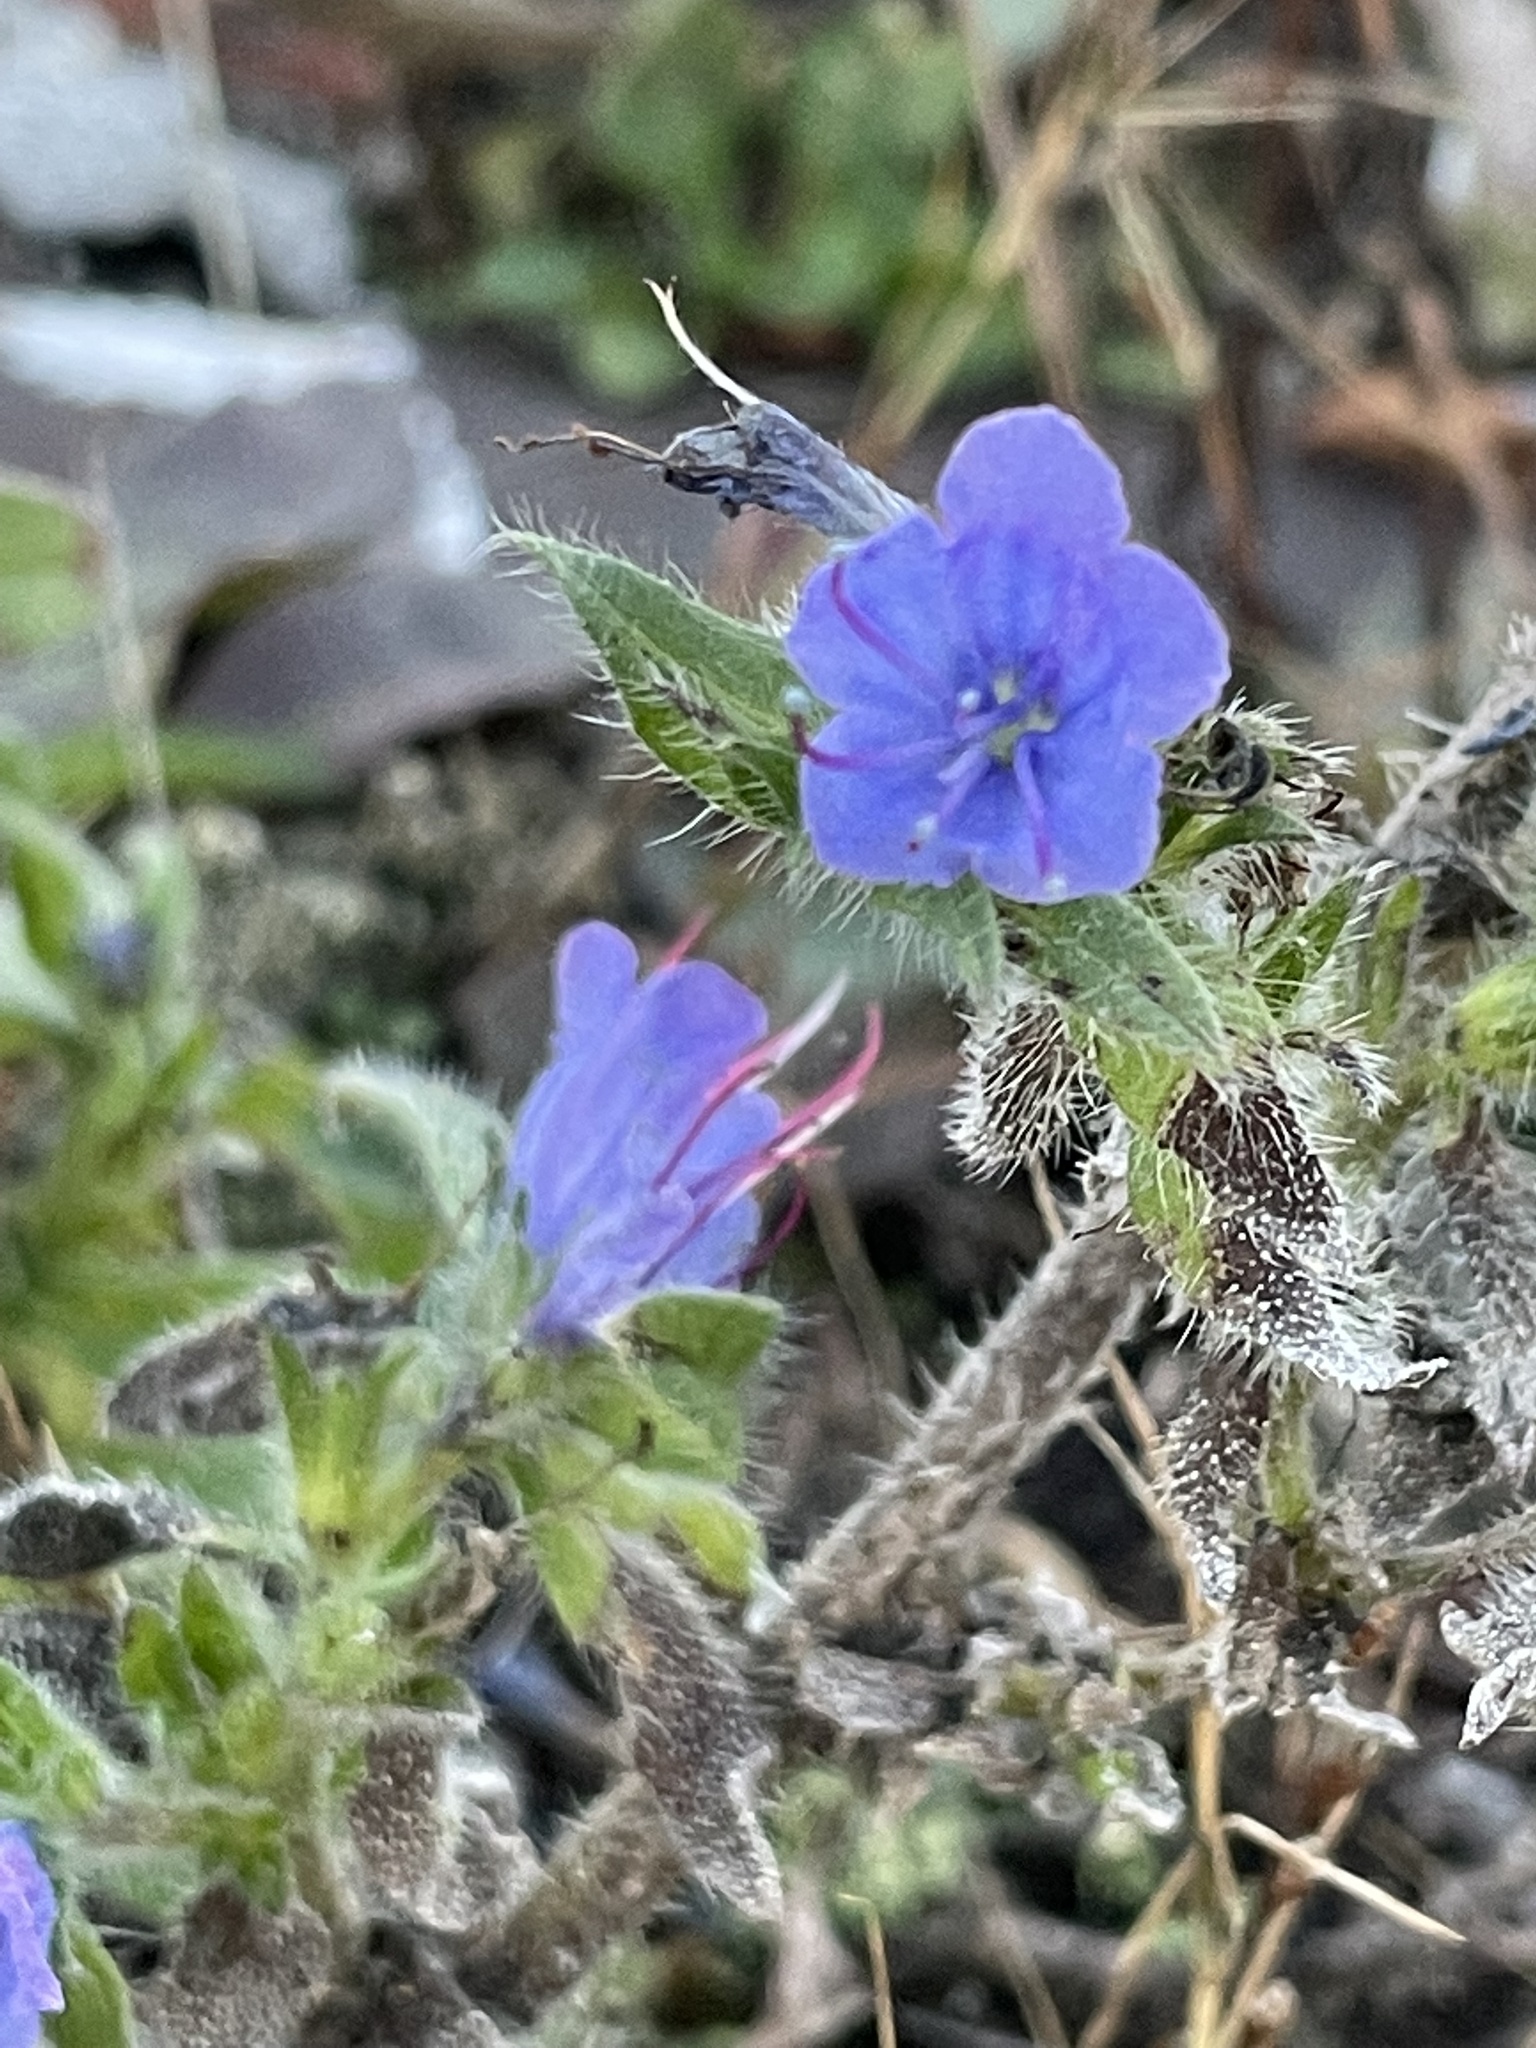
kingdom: Plantae
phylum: Tracheophyta
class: Magnoliopsida
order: Boraginales
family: Boraginaceae
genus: Echium
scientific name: Echium vulgare
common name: Common viper's bugloss
